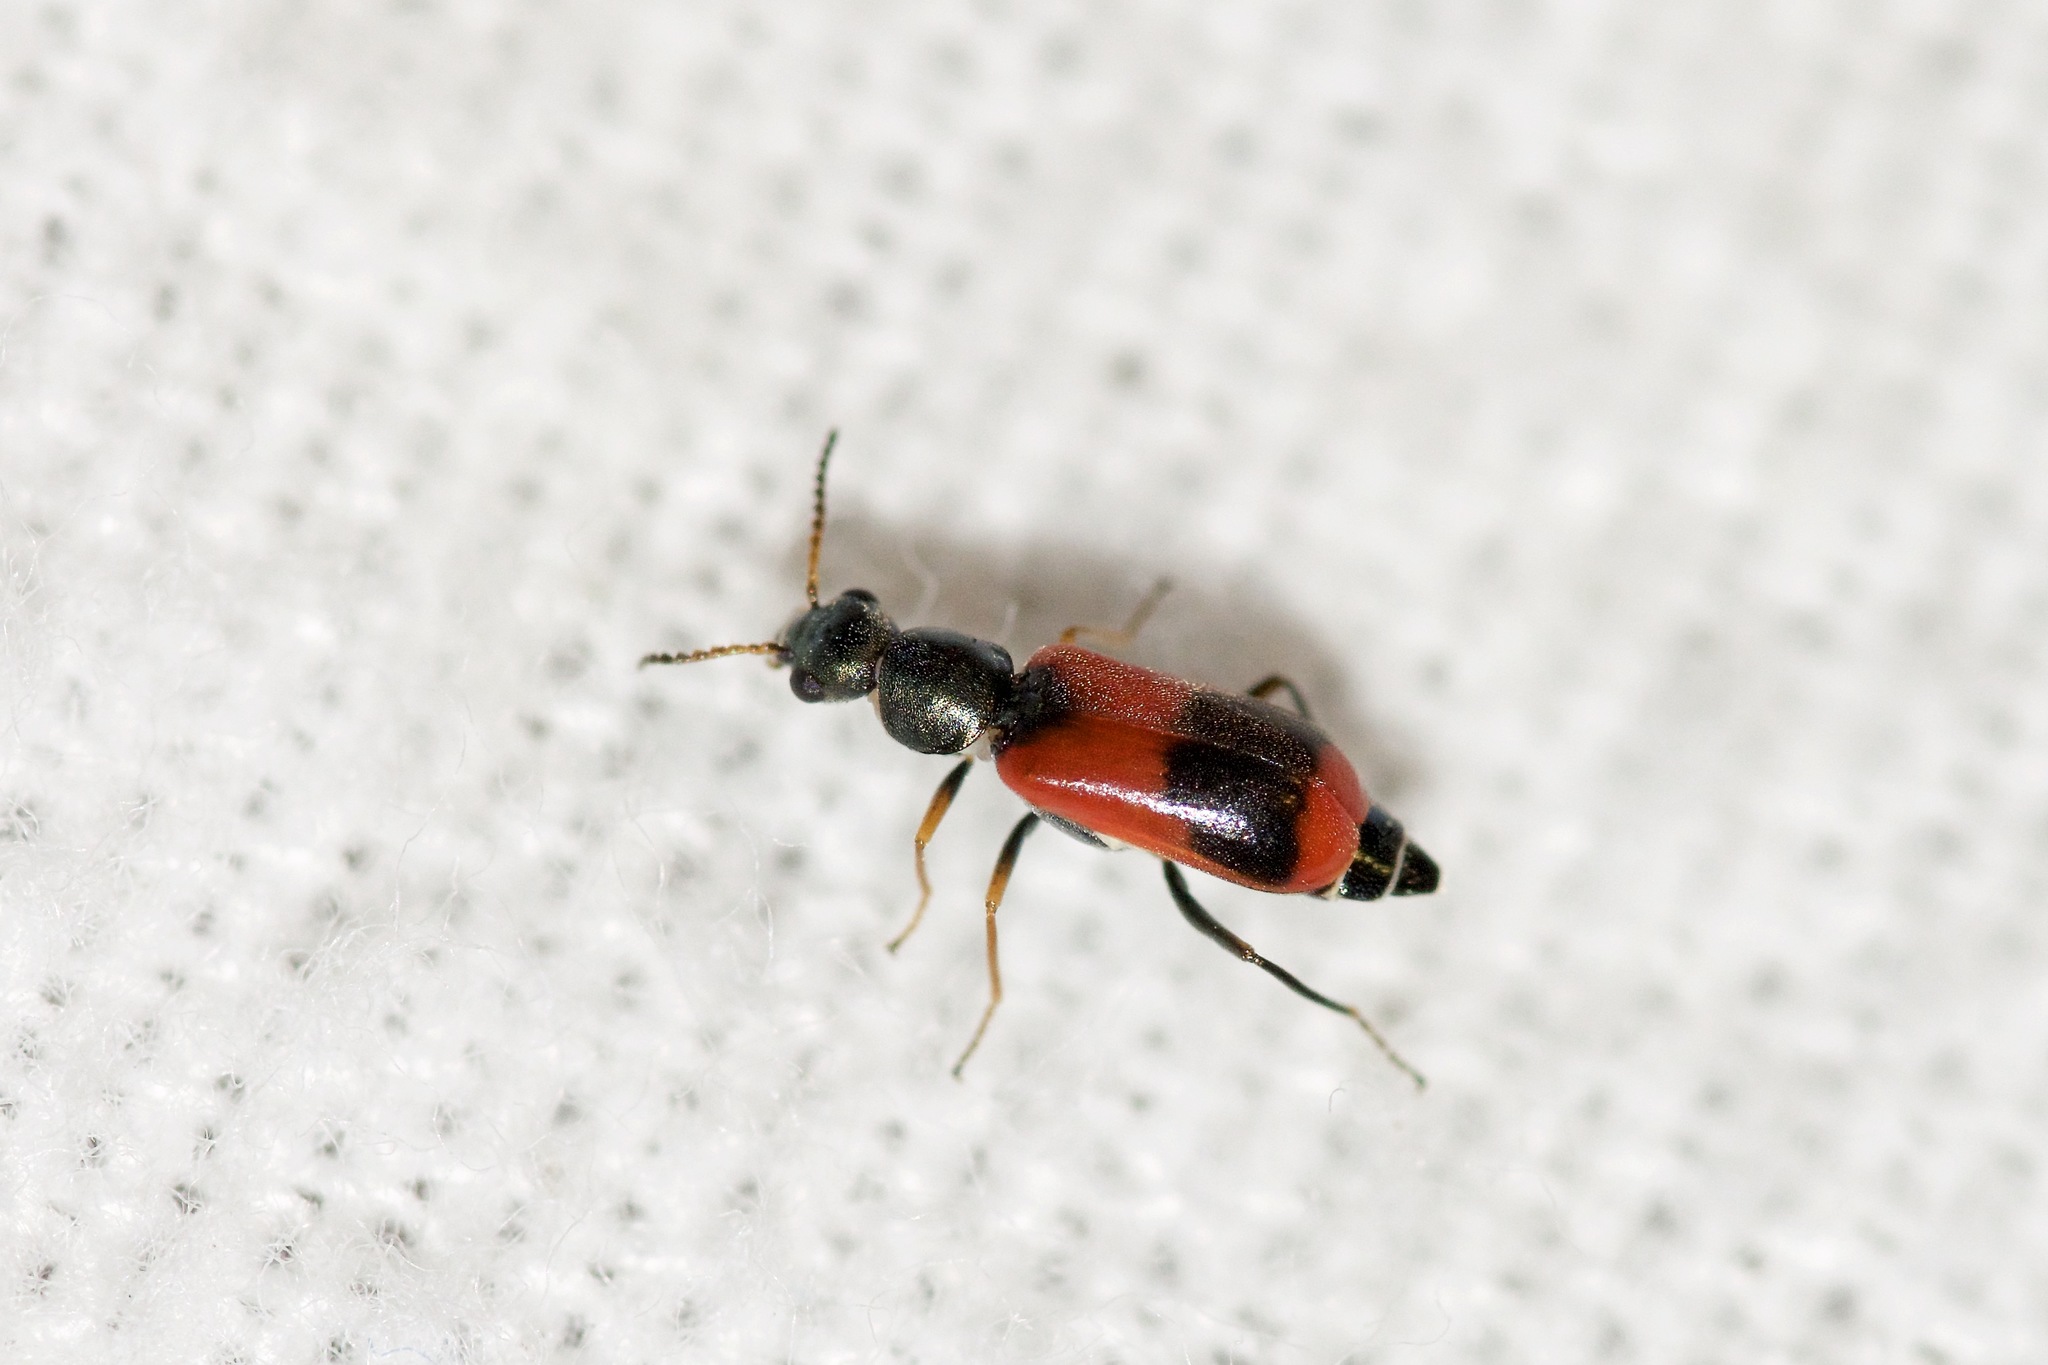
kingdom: Animalia
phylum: Arthropoda
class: Insecta
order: Coleoptera
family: Melyridae
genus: Anthocomus
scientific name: Anthocomus equestris
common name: Black-banded soft-winged flower beetle
